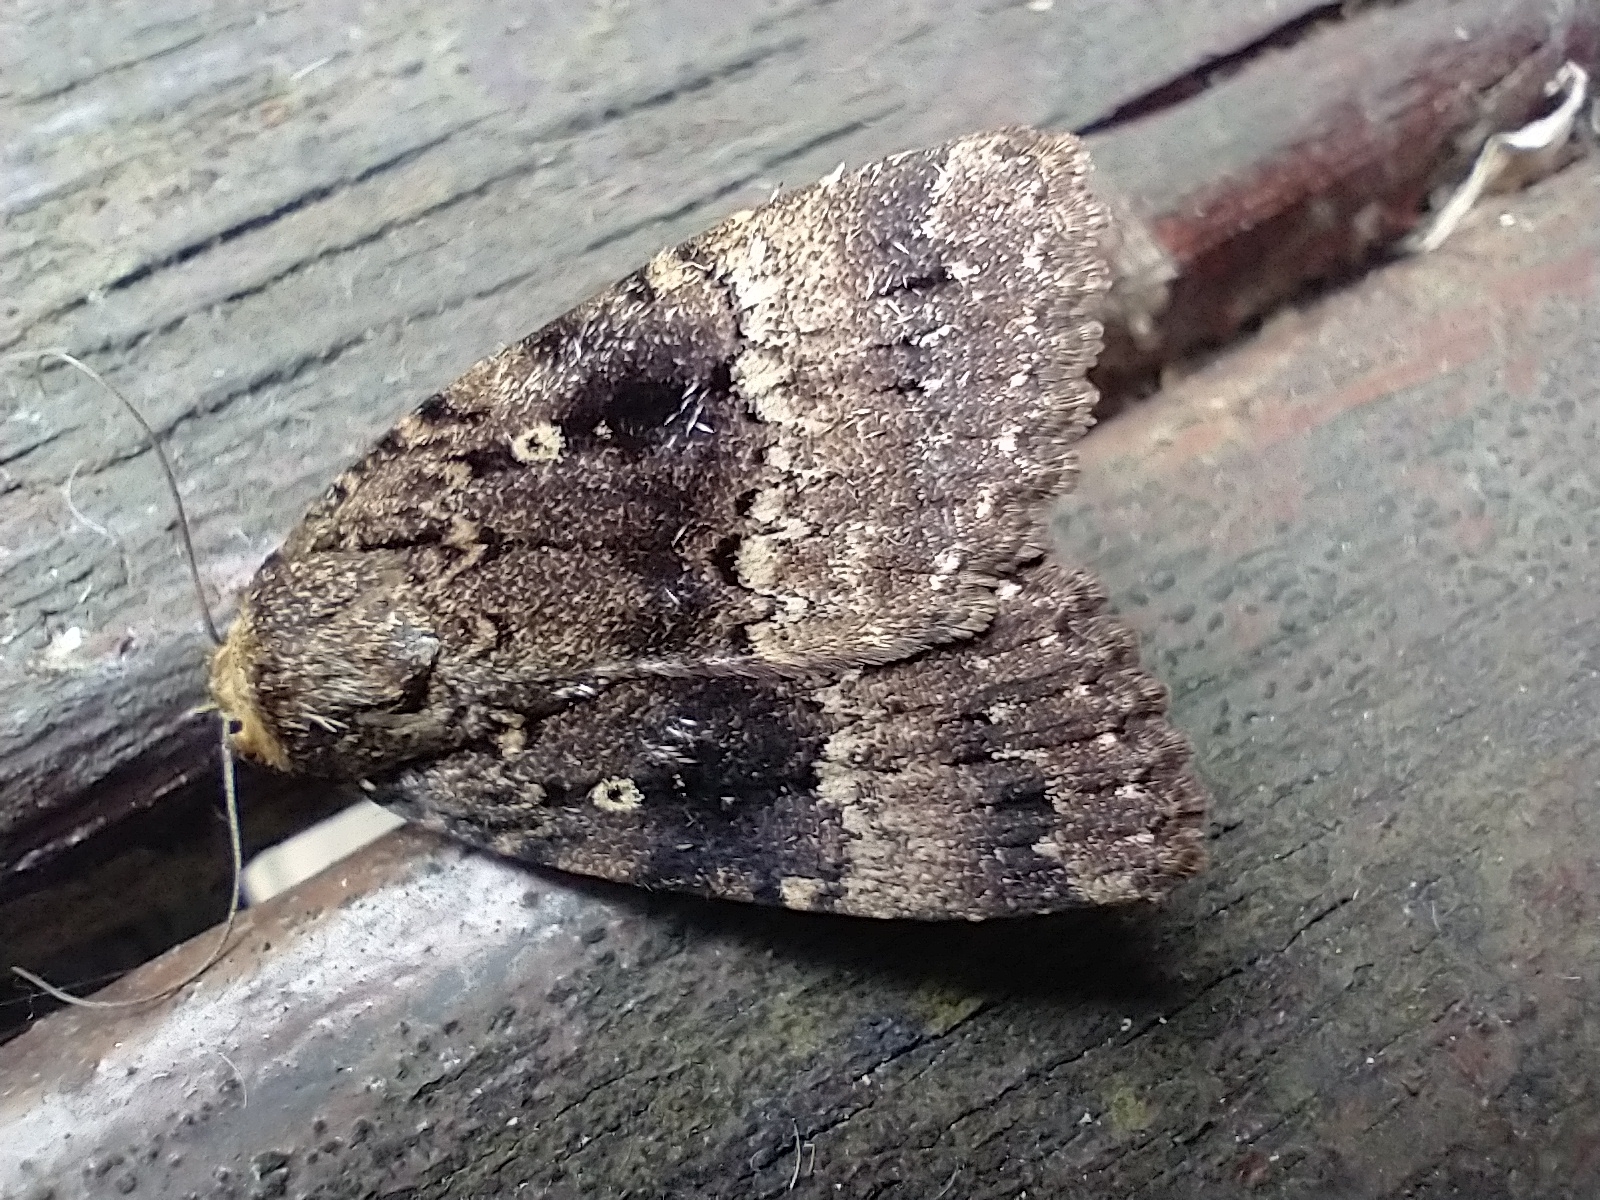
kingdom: Animalia
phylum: Arthropoda
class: Insecta
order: Lepidoptera
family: Noctuidae
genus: Amphipyra
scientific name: Amphipyra pyramidea
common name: Copper underwing
